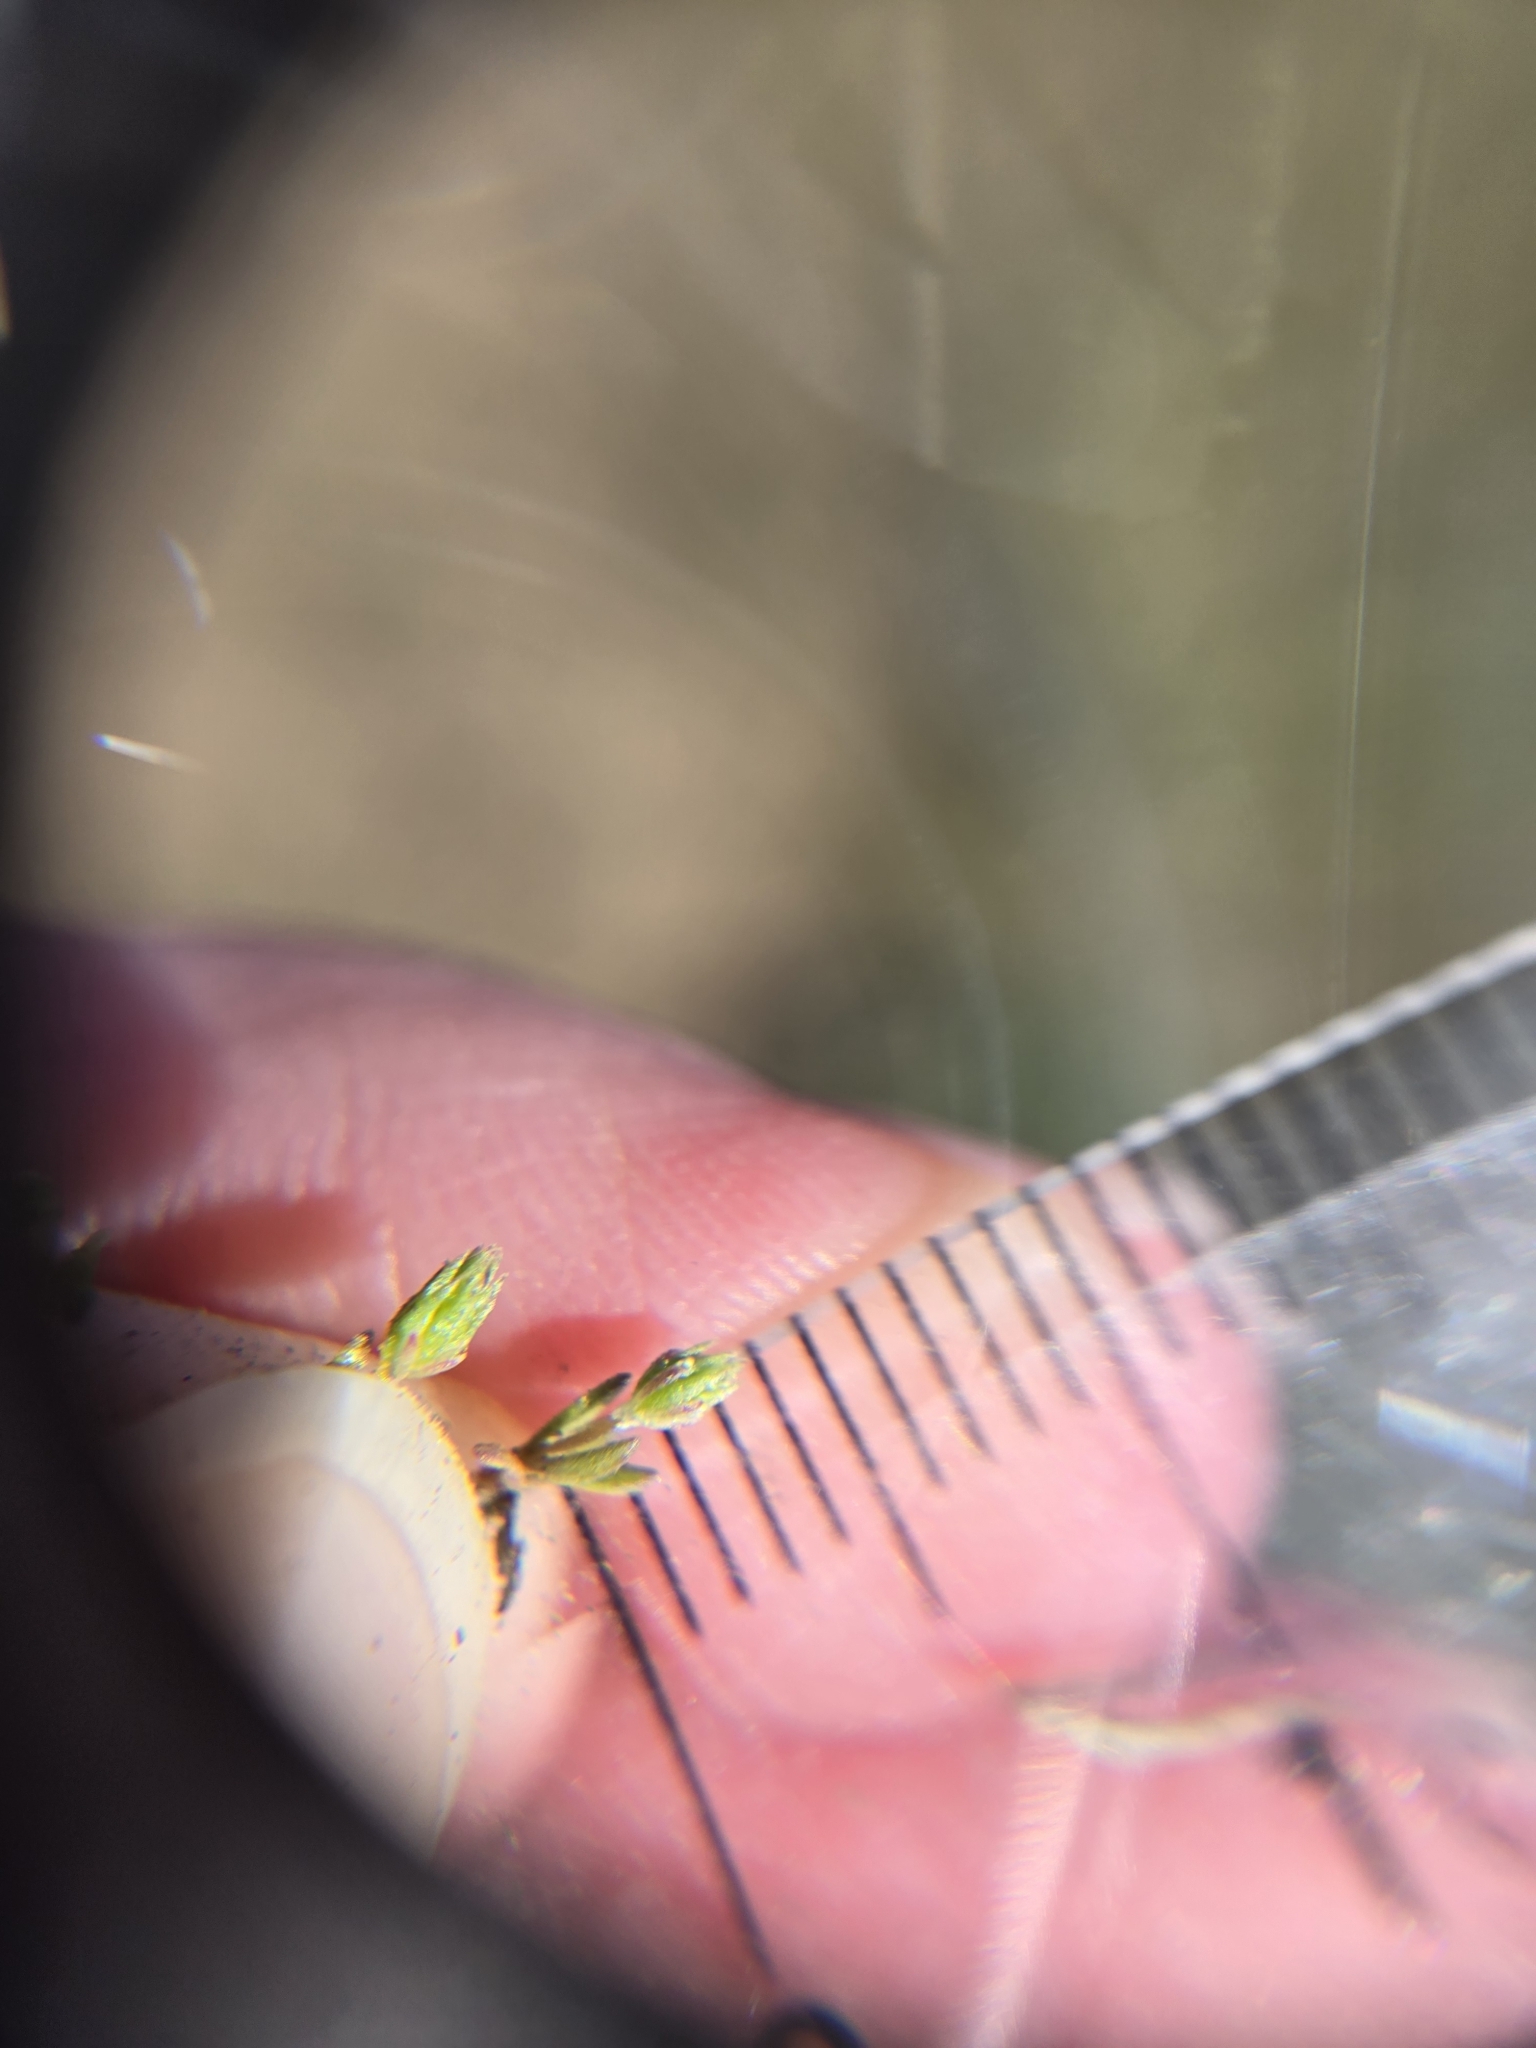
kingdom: Plantae
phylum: Tracheophyta
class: Magnoliopsida
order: Ranunculales
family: Ranunculaceae
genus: Myosurus
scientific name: Myosurus apetalus
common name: Mousetail
